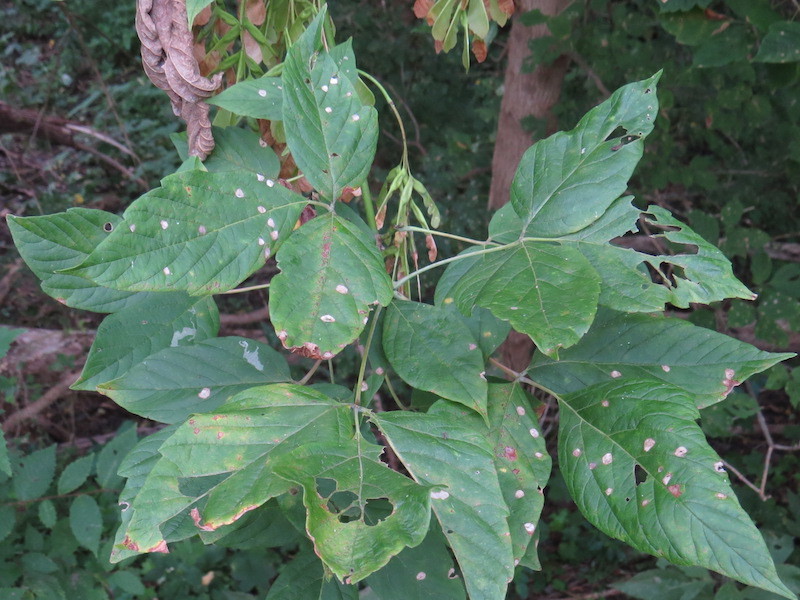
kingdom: Plantae
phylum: Tracheophyta
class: Magnoliopsida
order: Sapindales
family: Sapindaceae
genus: Acer
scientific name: Acer negundo
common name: Ashleaf maple
